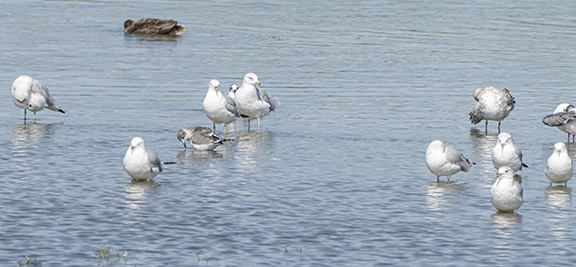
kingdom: Animalia
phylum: Chordata
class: Aves
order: Charadriiformes
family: Laridae
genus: Larus
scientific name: Larus delawarensis
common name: Ring-billed gull
